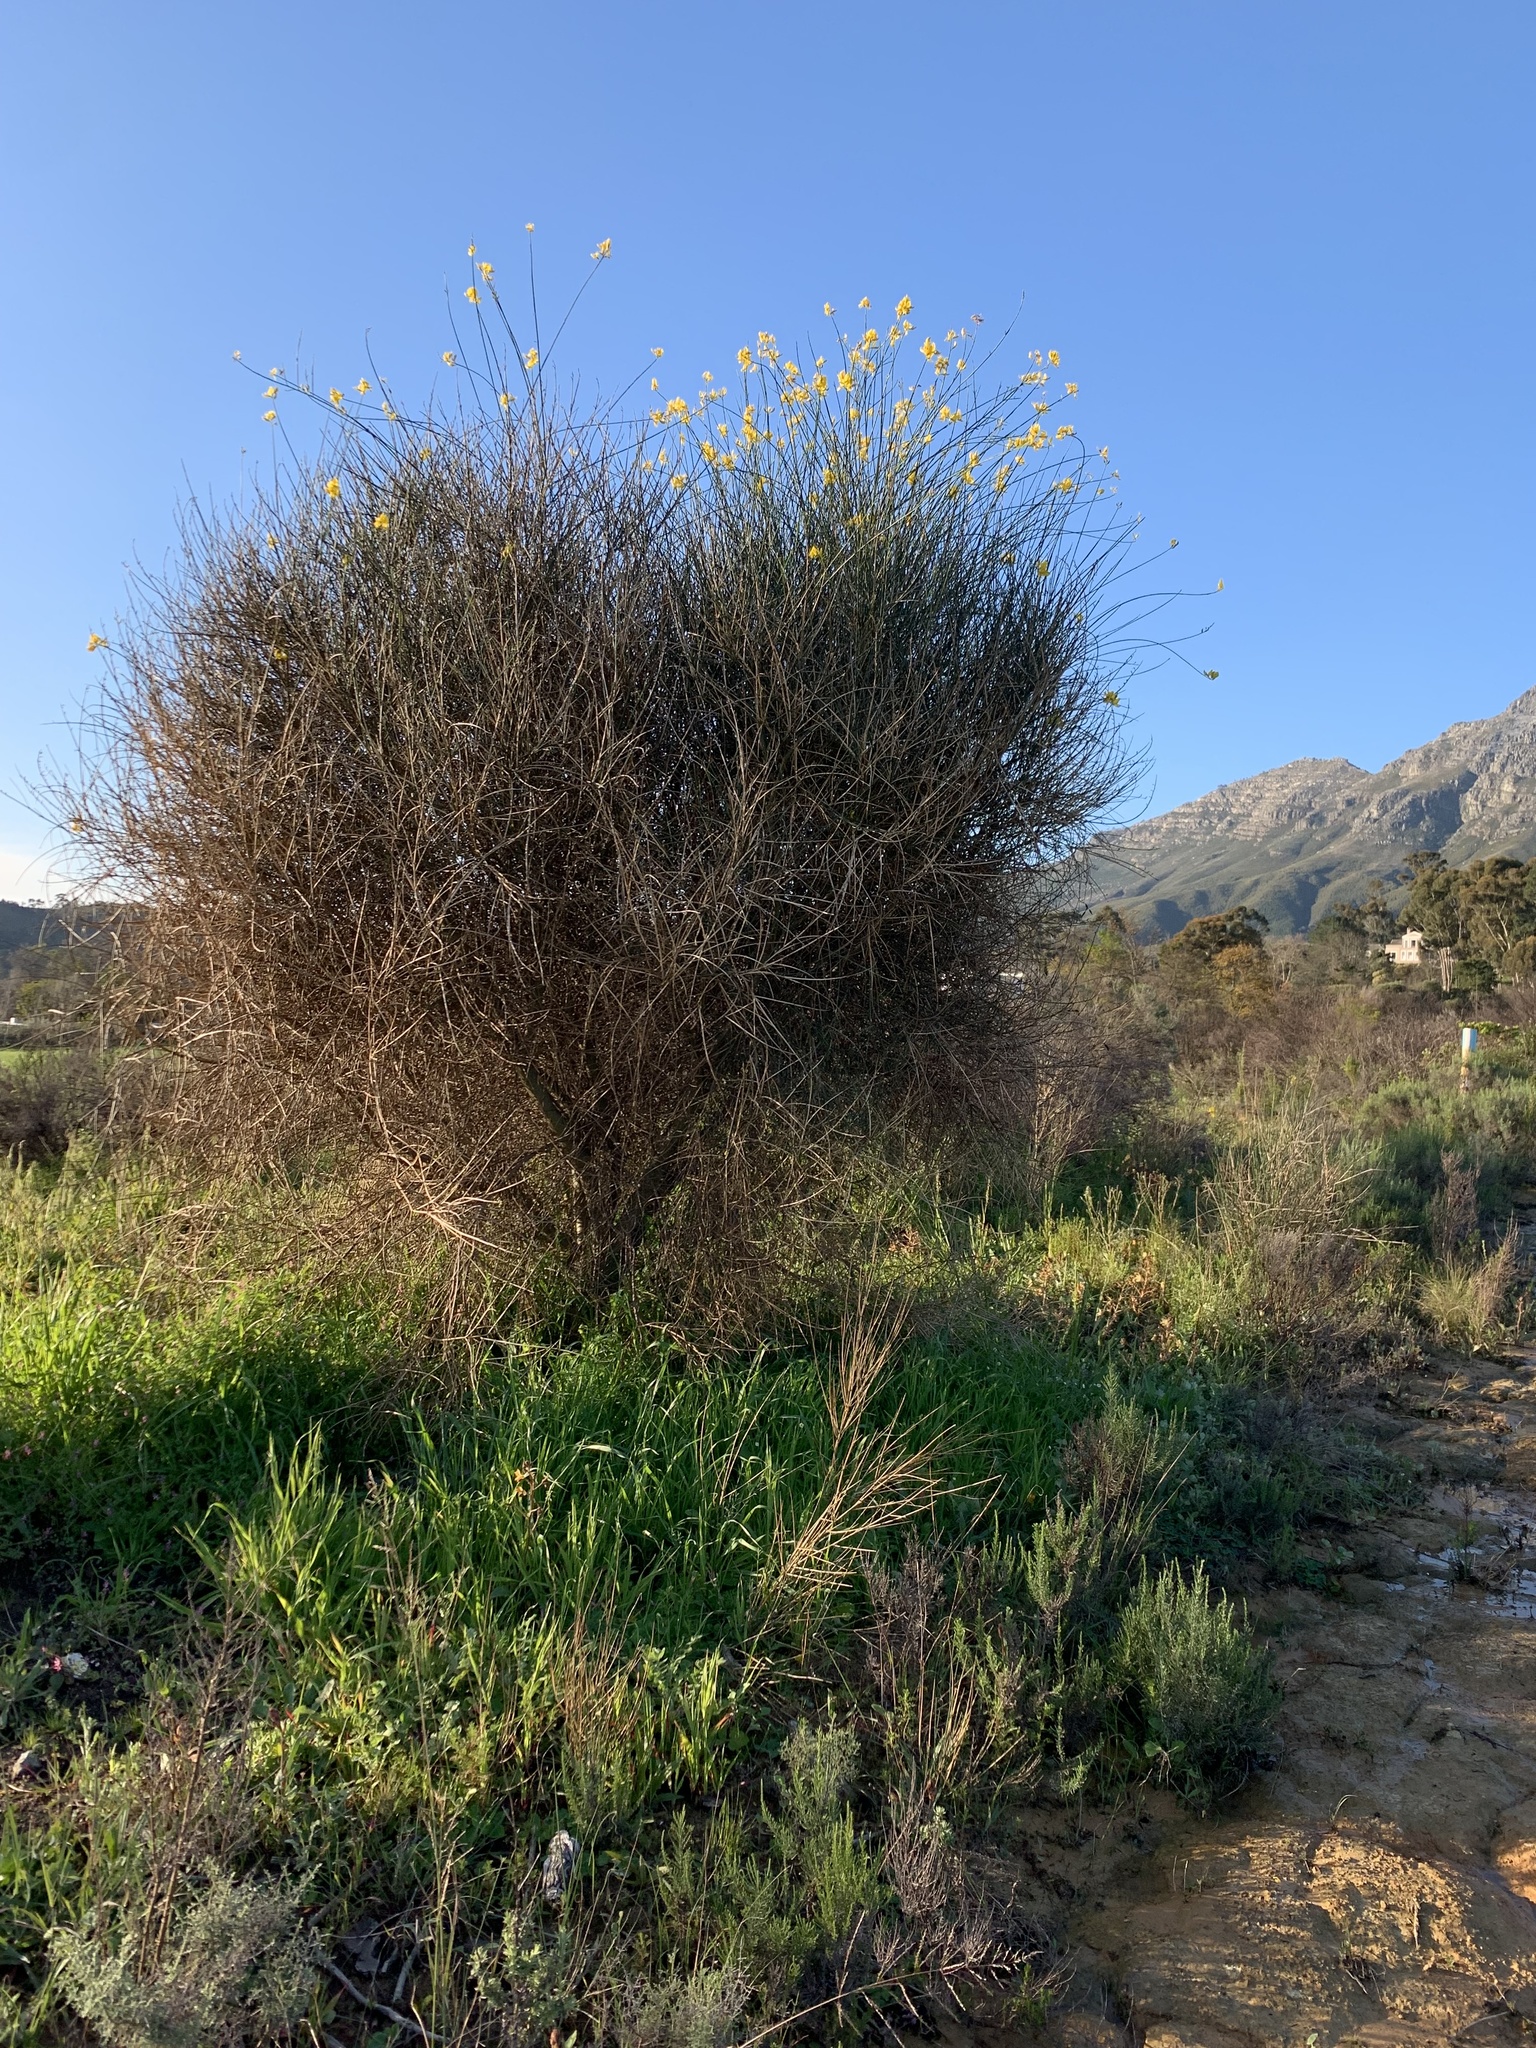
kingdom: Plantae
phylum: Tracheophyta
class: Magnoliopsida
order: Fabales
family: Fabaceae
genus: Spartium
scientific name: Spartium junceum
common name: Spanish broom
